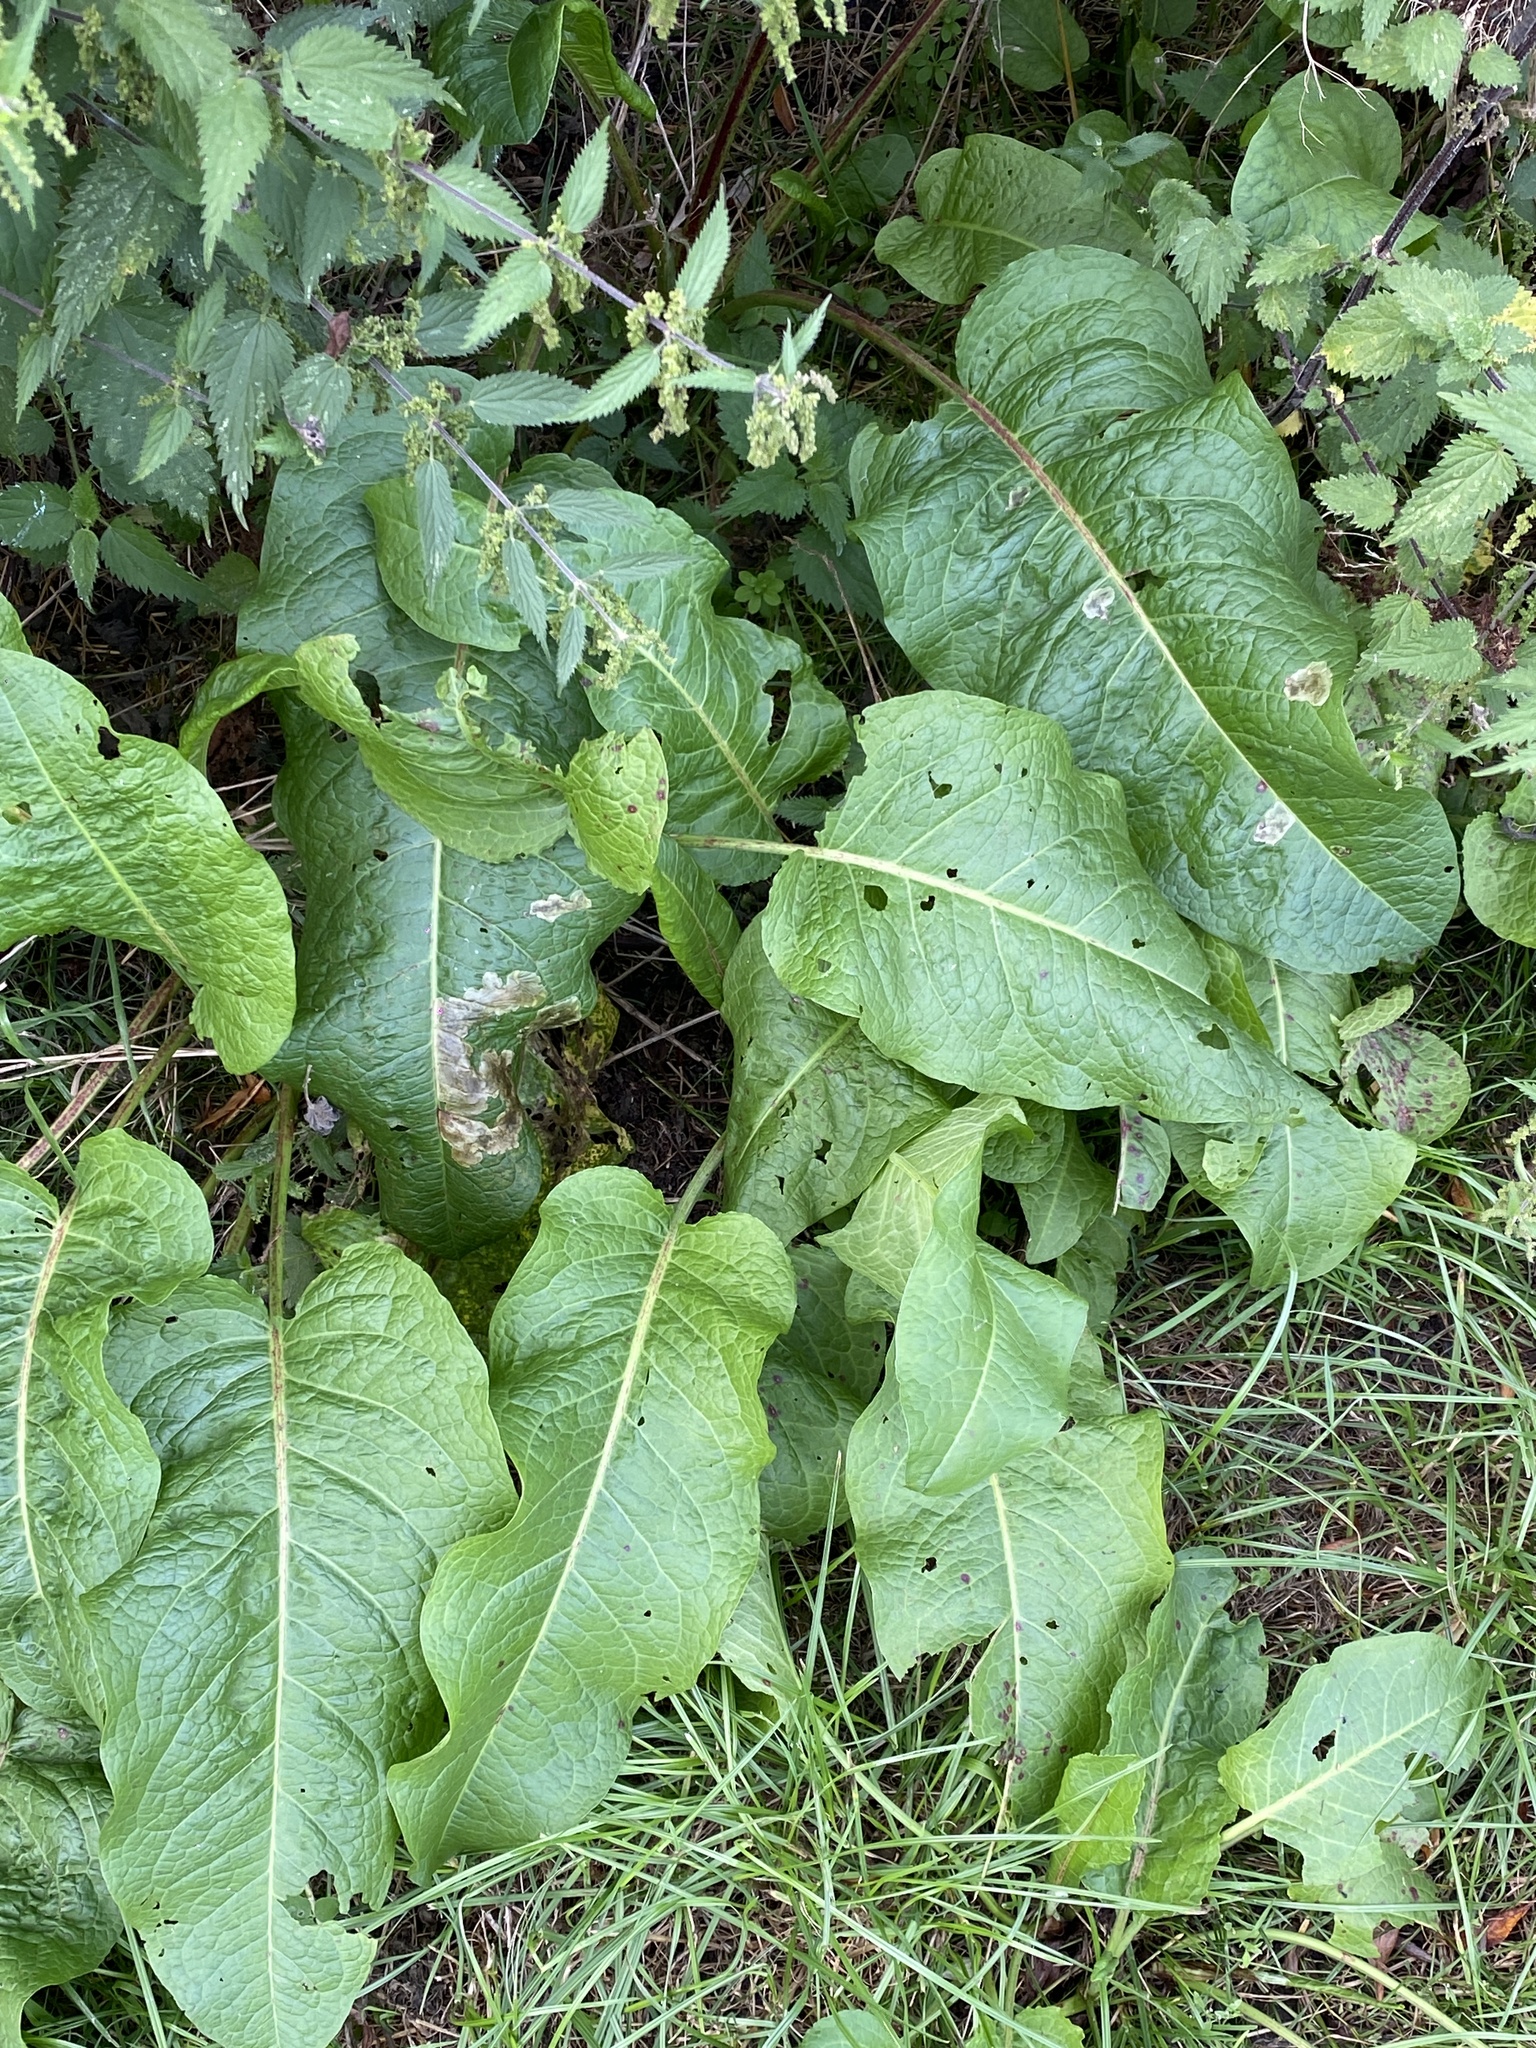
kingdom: Plantae
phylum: Tracheophyta
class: Magnoliopsida
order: Caryophyllales
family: Polygonaceae
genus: Rumex
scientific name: Rumex obtusifolius
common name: Bitter dock
